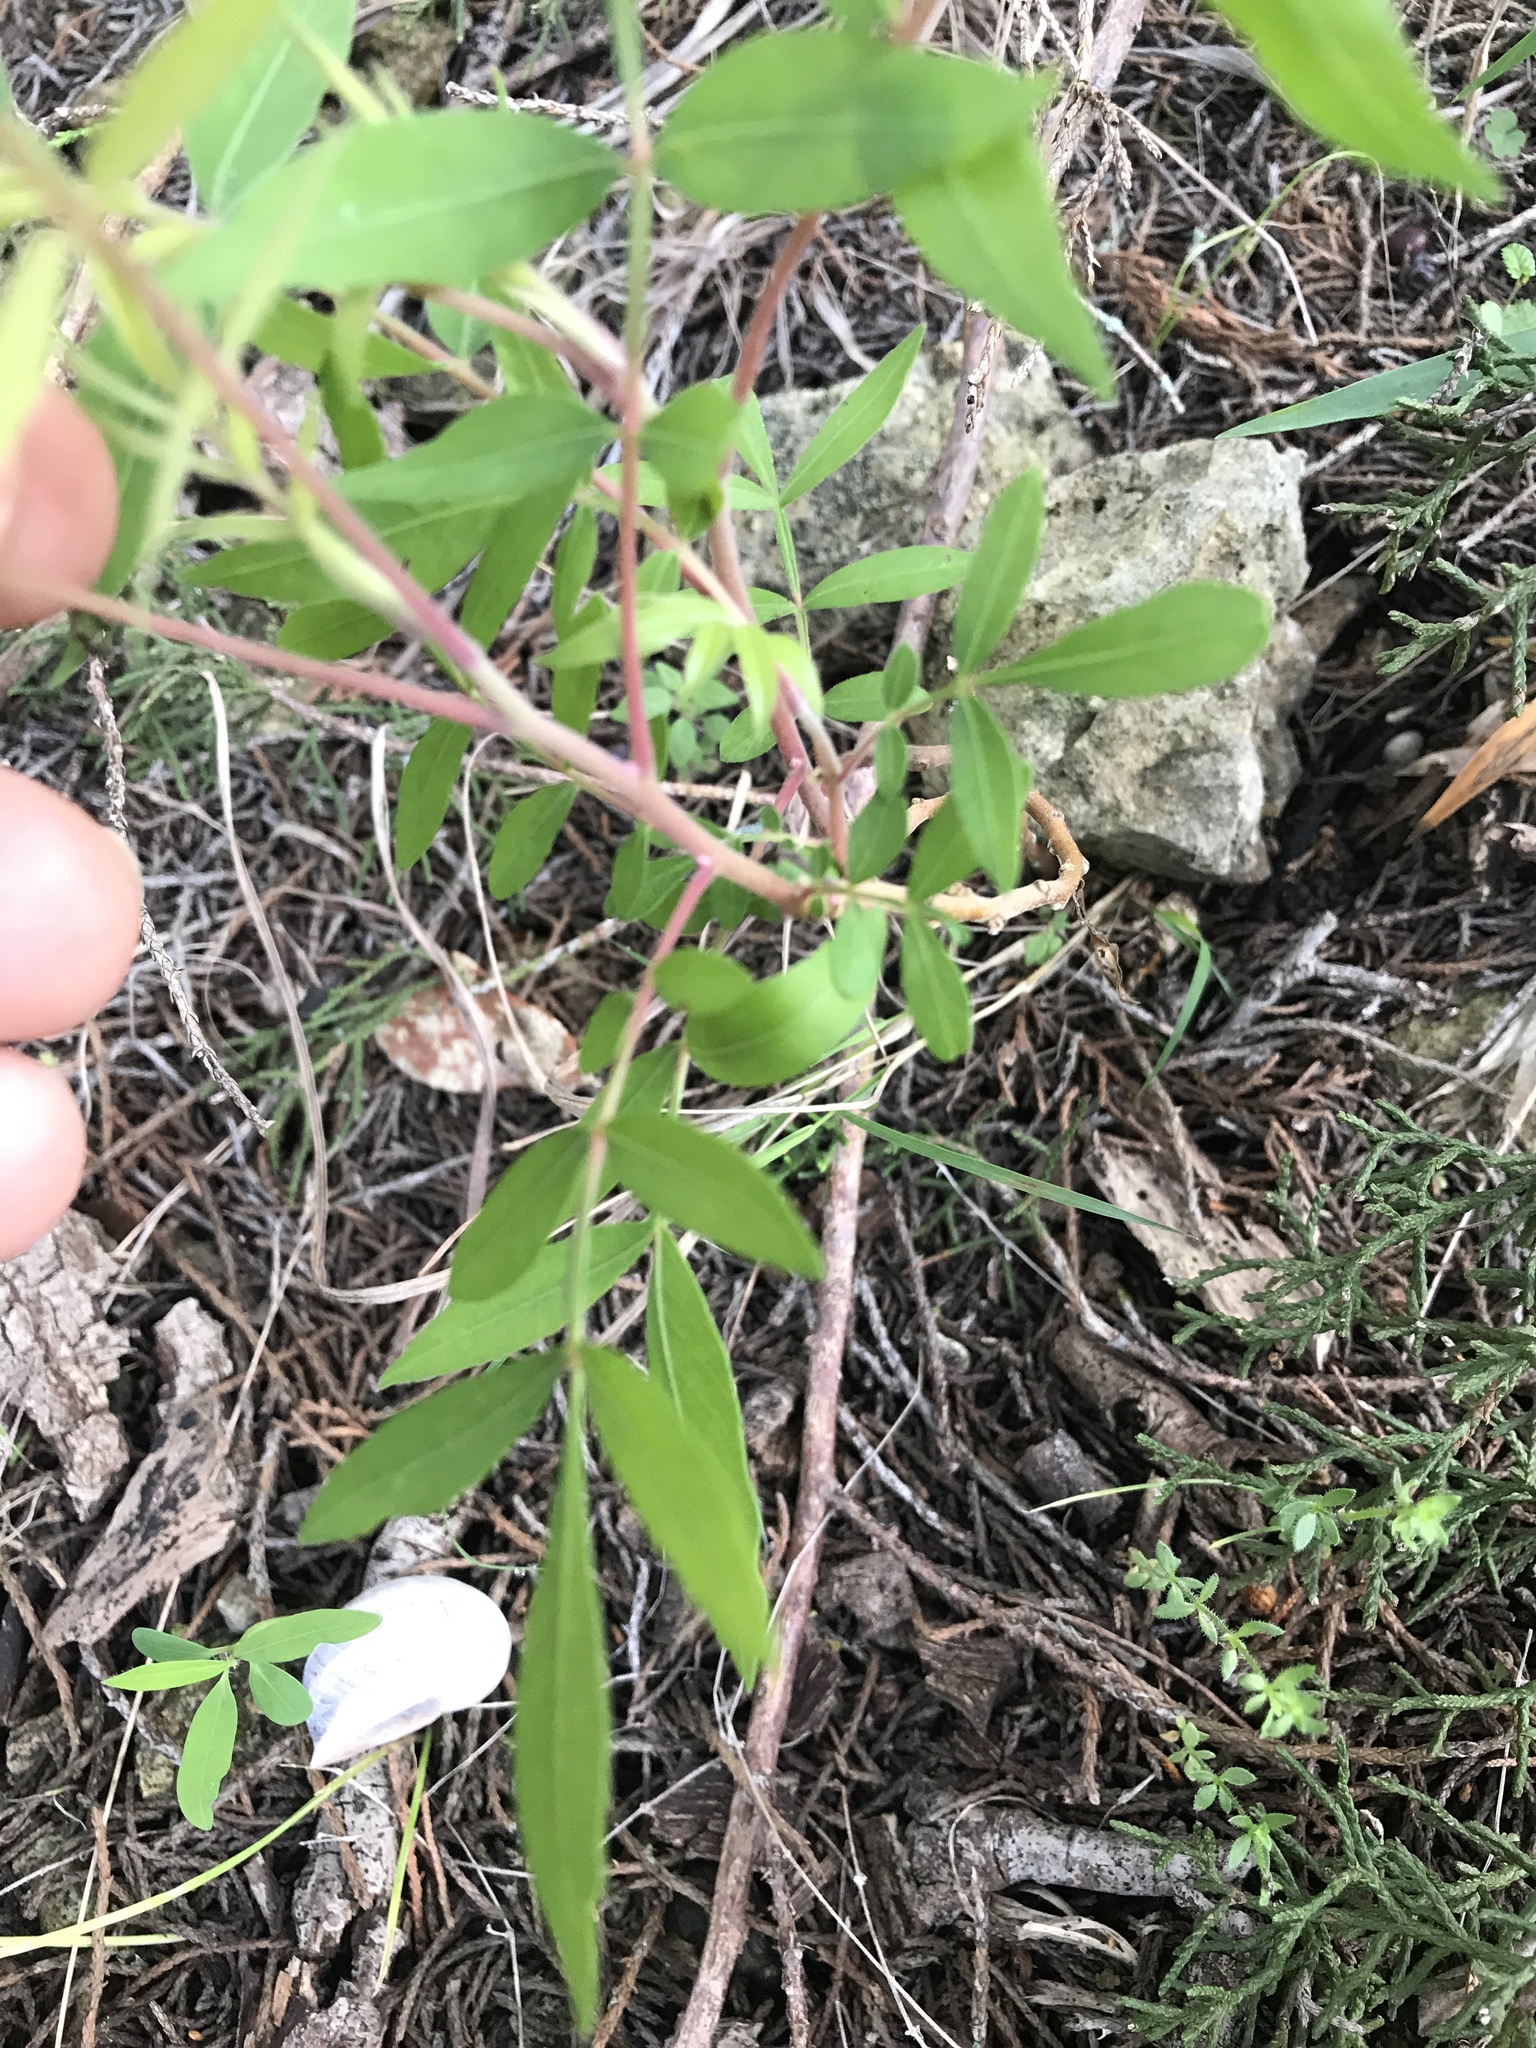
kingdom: Plantae
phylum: Tracheophyta
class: Magnoliopsida
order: Sapindales
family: Anacardiaceae
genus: Rhus
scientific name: Rhus lanceolata
